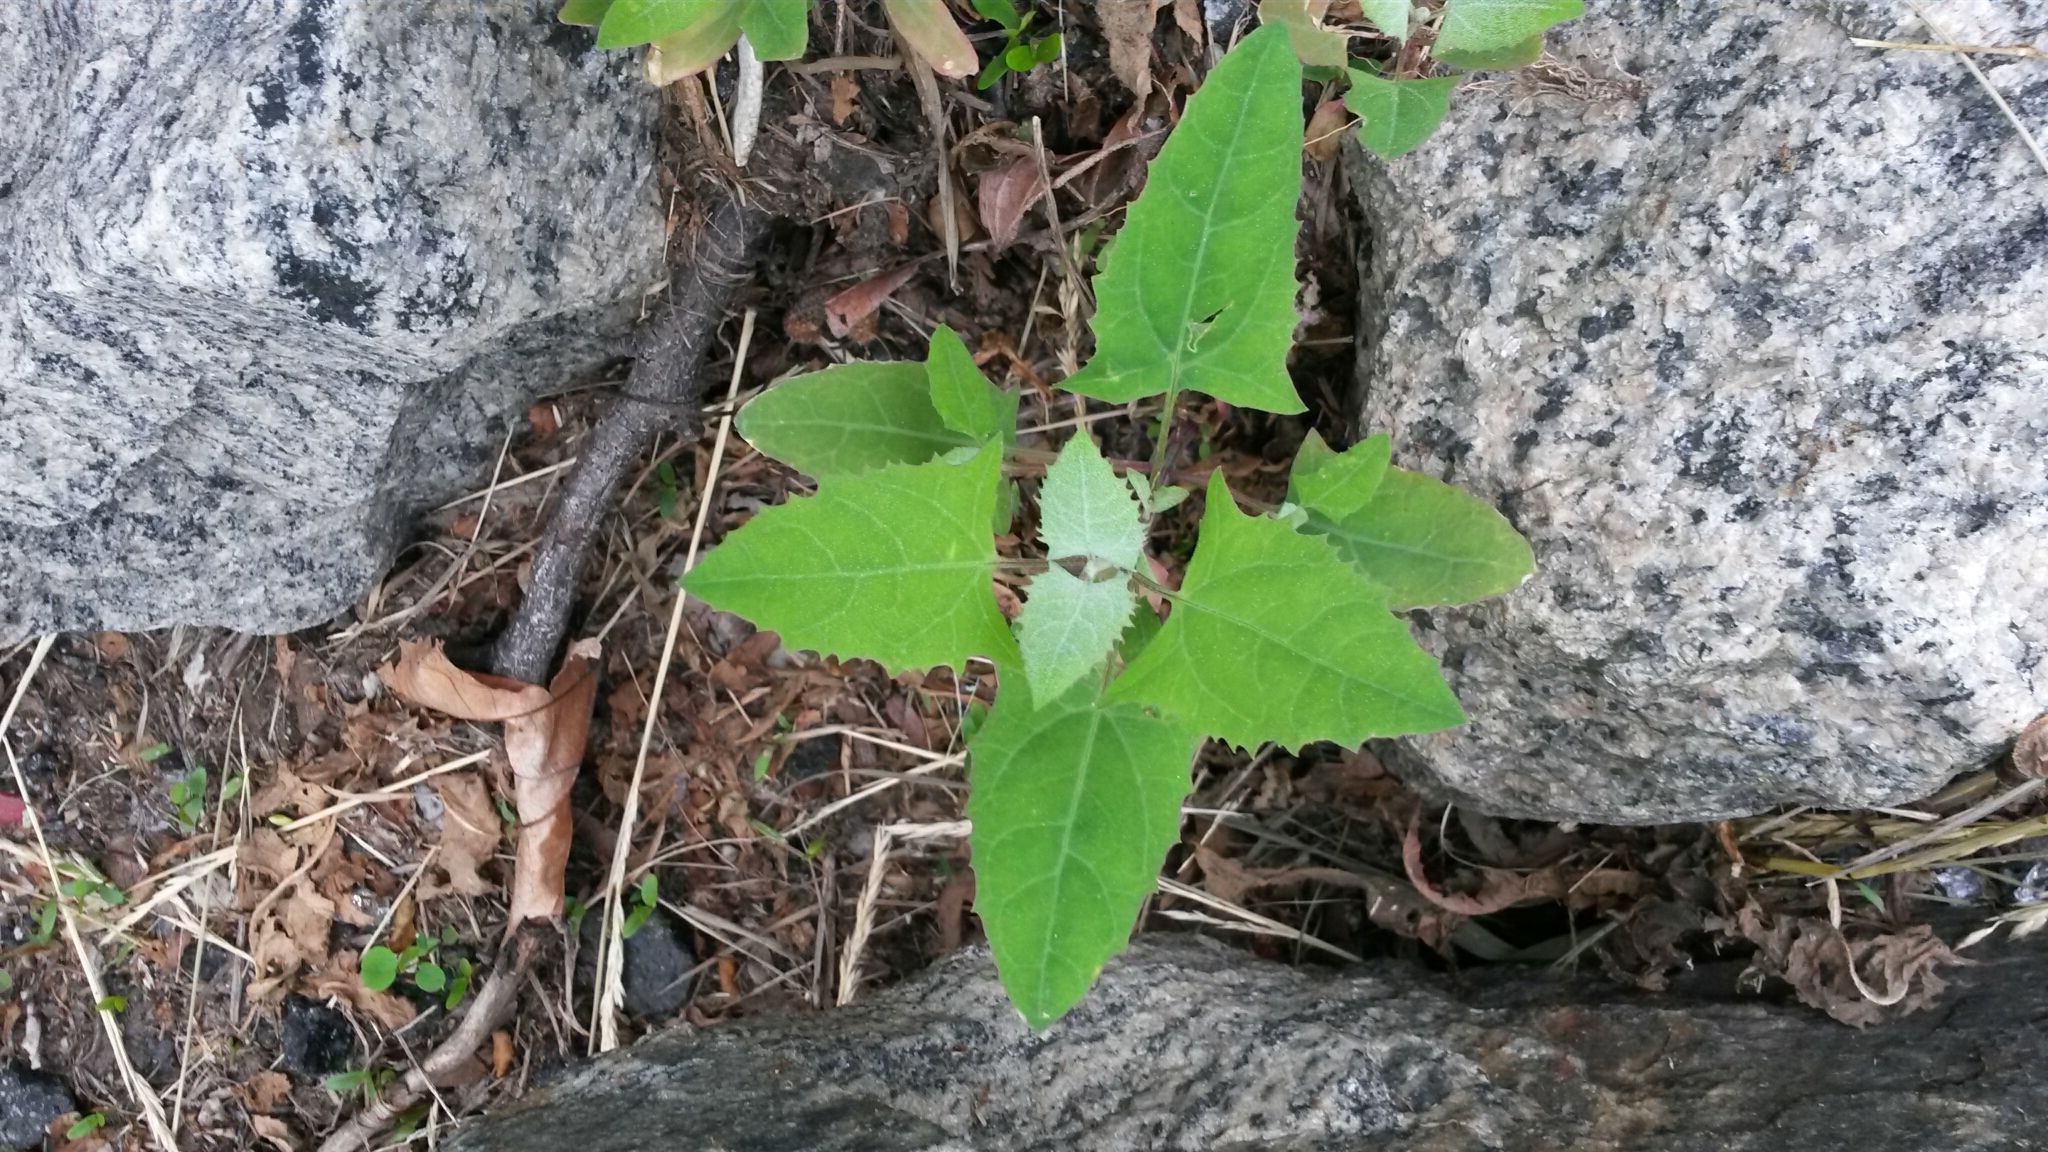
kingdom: Plantae
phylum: Tracheophyta
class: Magnoliopsida
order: Caryophyllales
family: Amaranthaceae
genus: Chenopodium
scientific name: Chenopodium album
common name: Fat-hen
